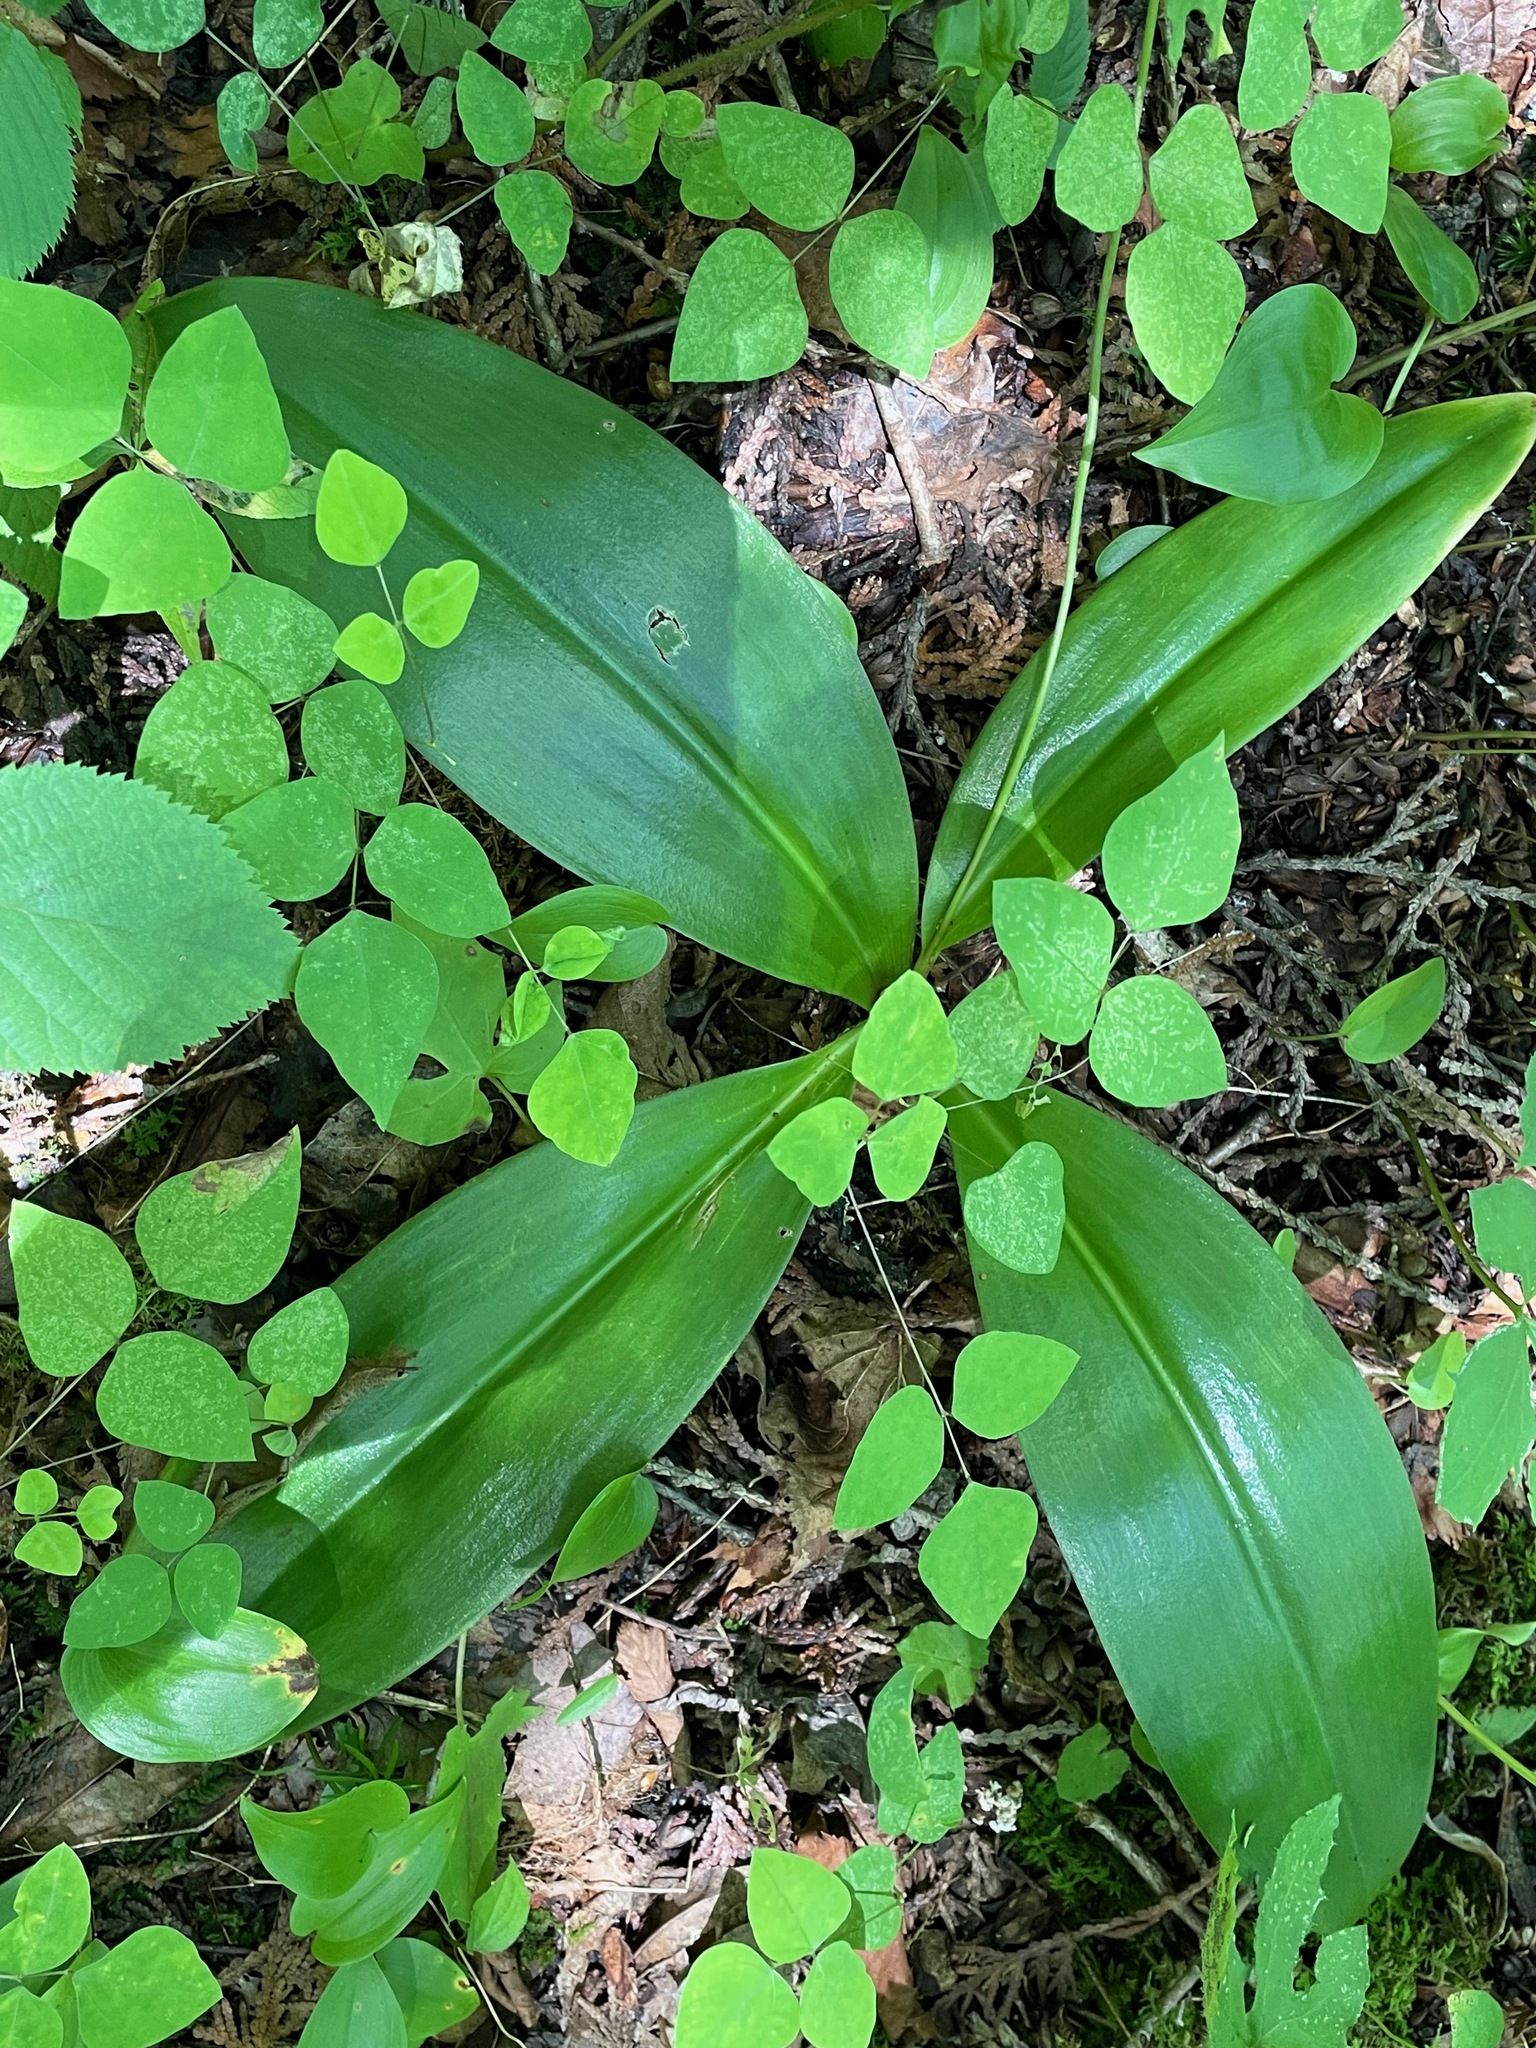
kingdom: Plantae
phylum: Tracheophyta
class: Liliopsida
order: Liliales
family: Liliaceae
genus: Clintonia
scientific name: Clintonia borealis
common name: Yellow clintonia
